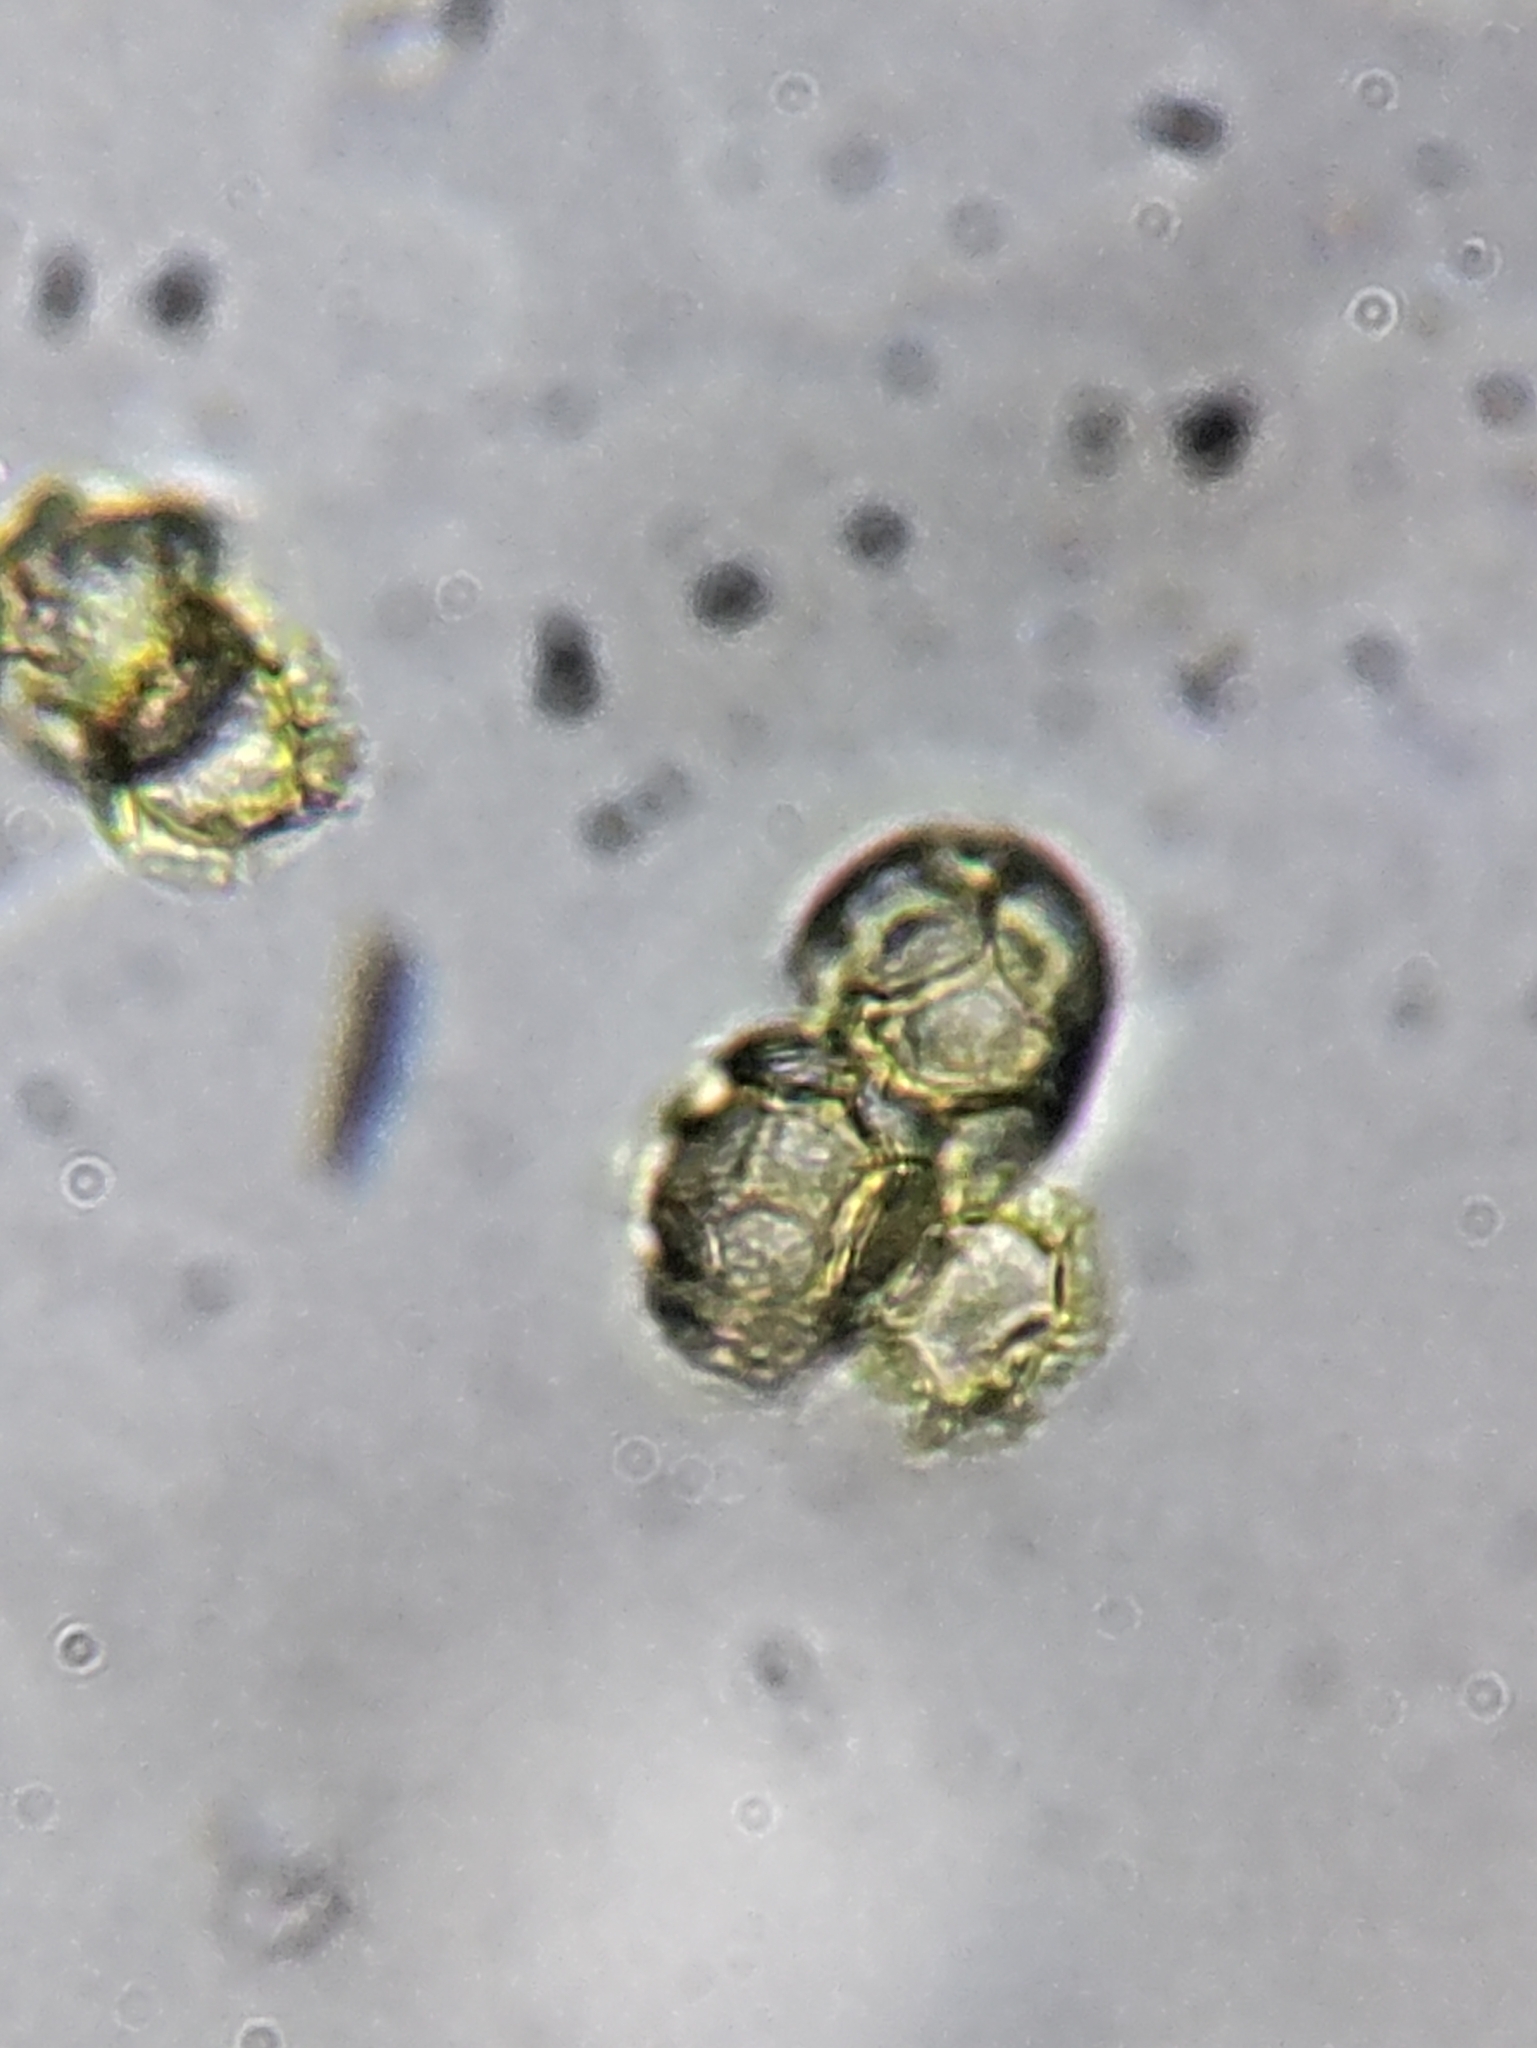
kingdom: Protozoa
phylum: Mycetozoa
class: Myxomycetes
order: Trichiales
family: Trichiaceae
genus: Oligonema
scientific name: Oligonema favogineum
